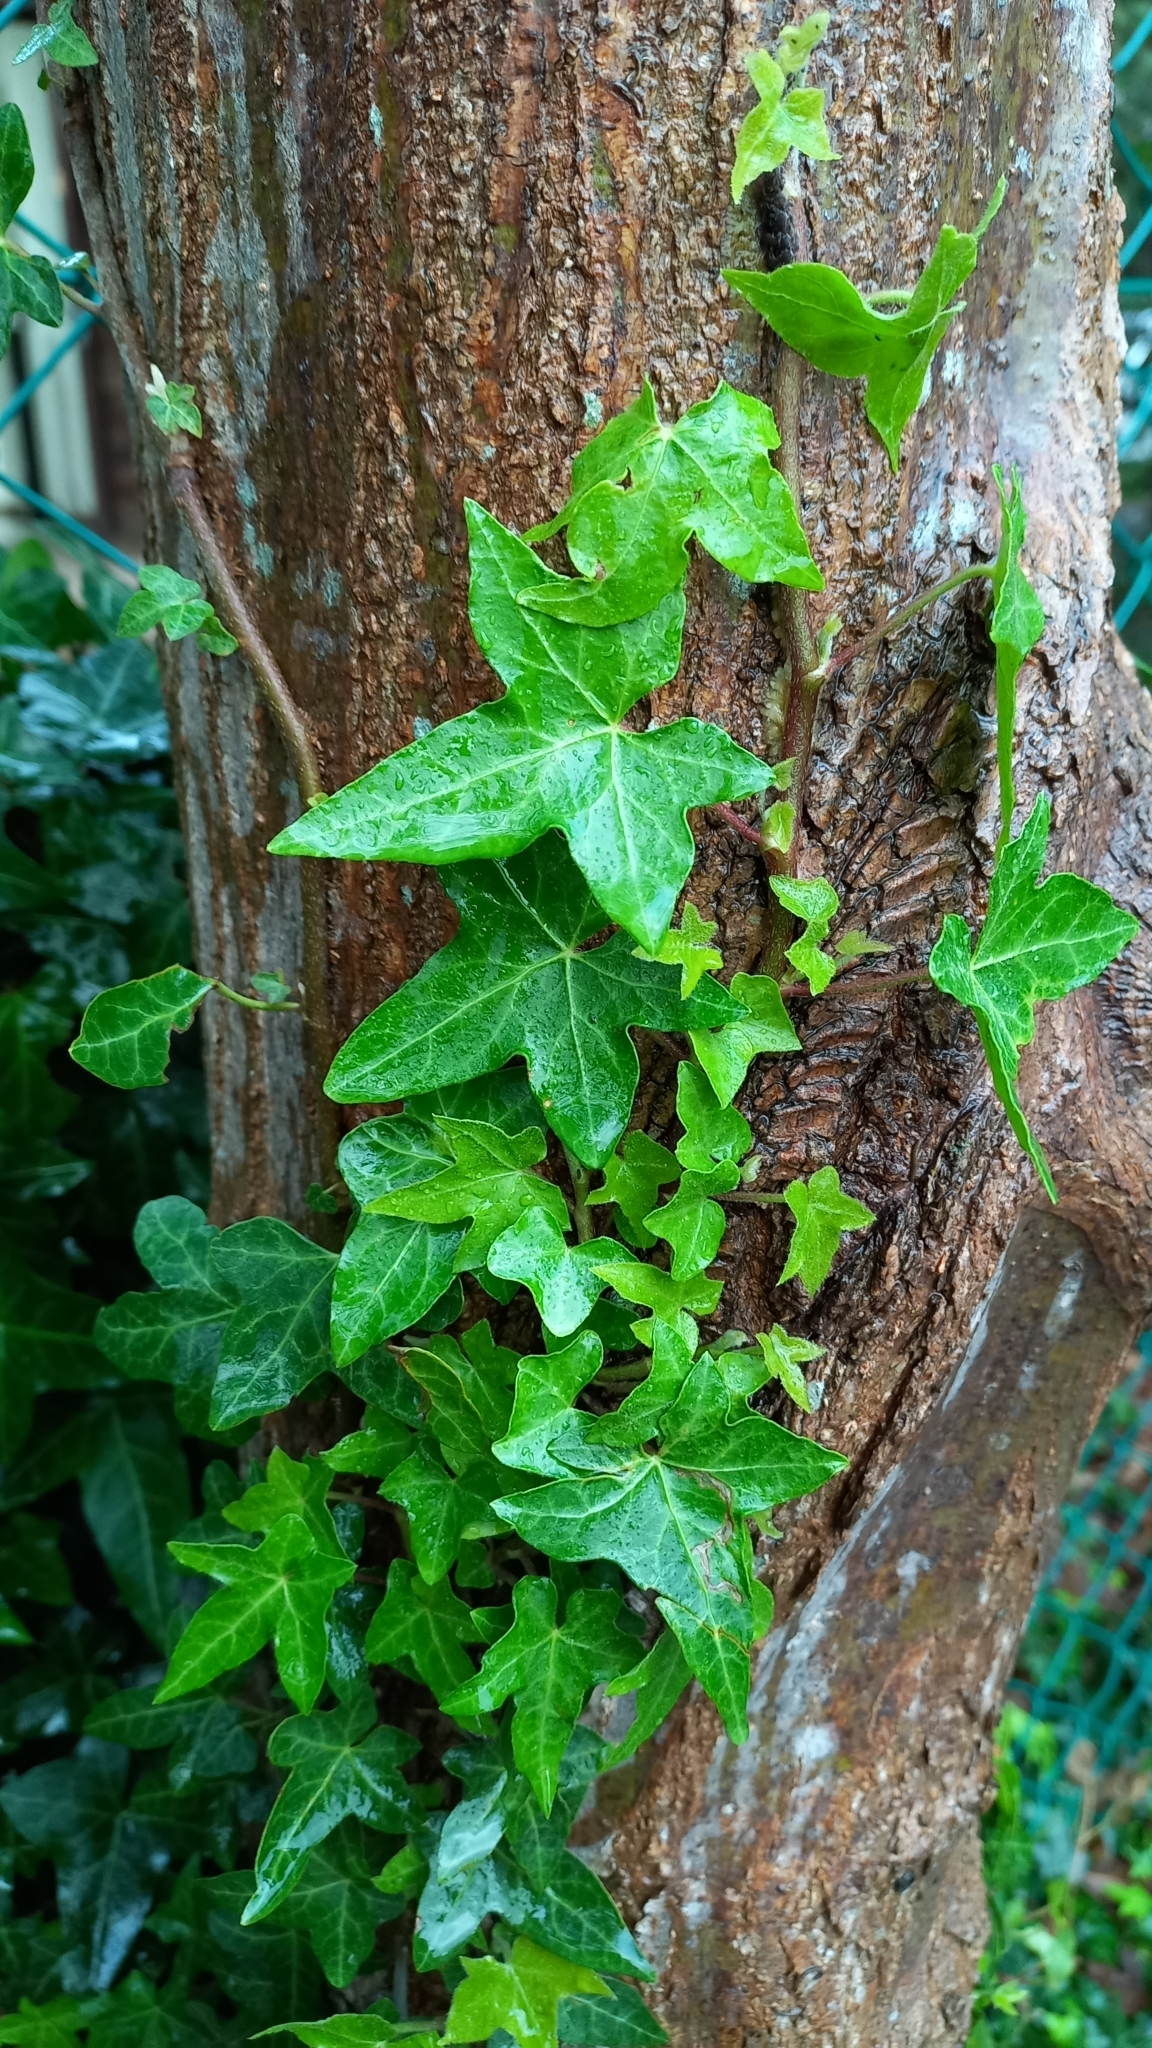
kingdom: Plantae
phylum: Tracheophyta
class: Magnoliopsida
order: Apiales
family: Araliaceae
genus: Hedera
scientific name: Hedera helix
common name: Ivy
